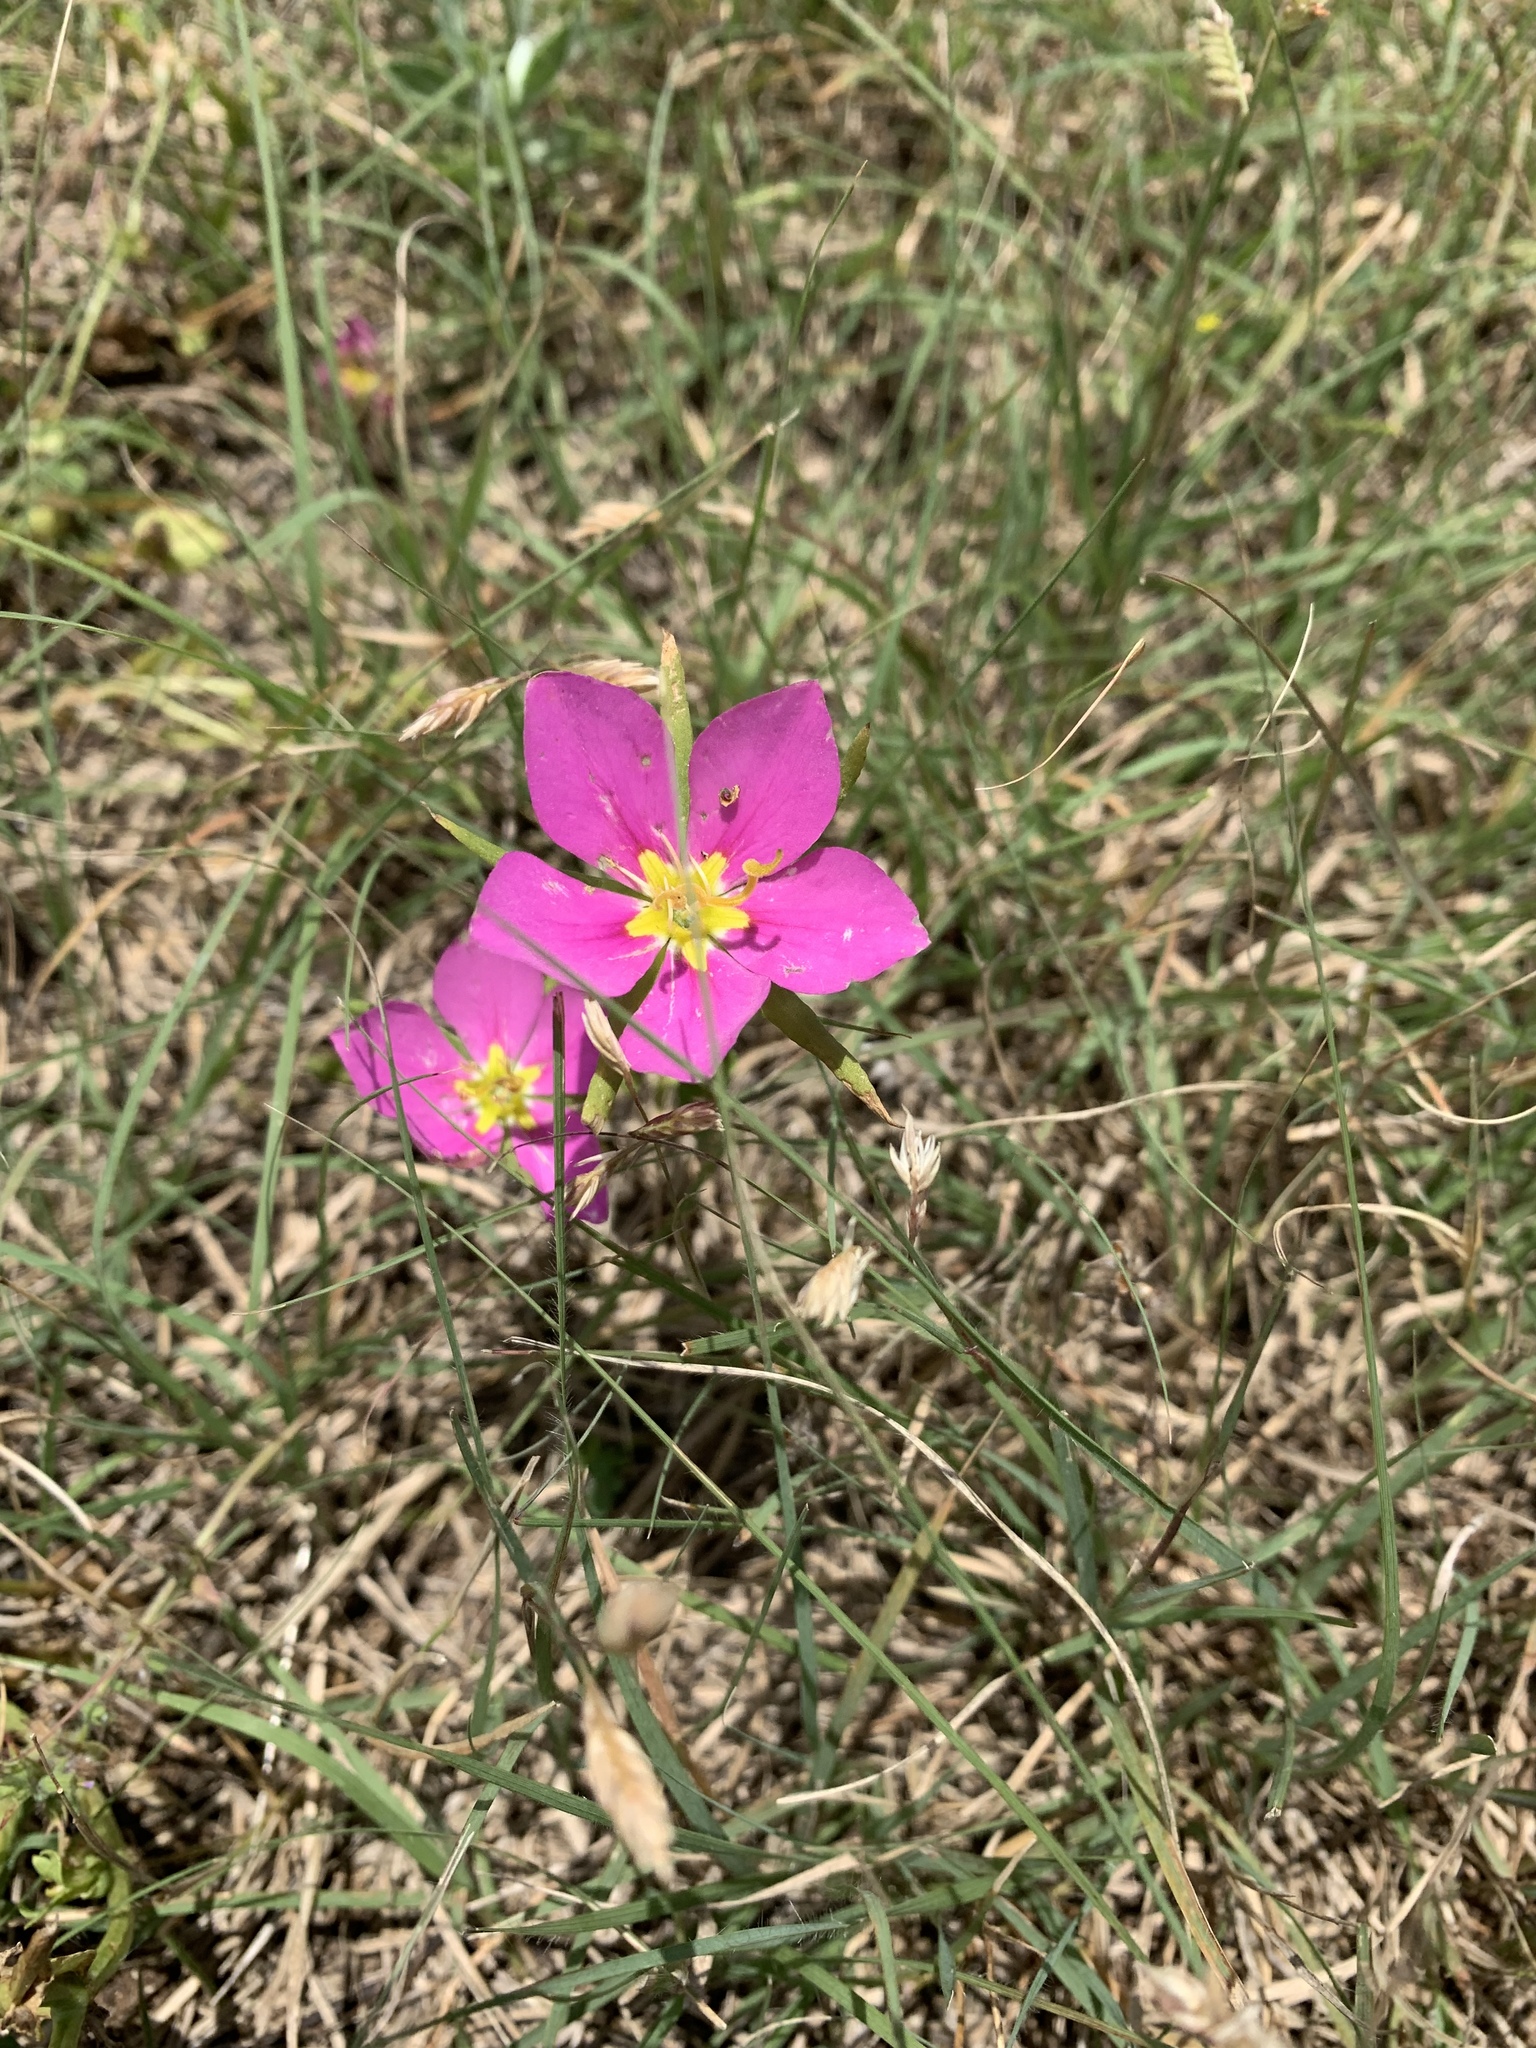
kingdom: Plantae
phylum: Tracheophyta
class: Magnoliopsida
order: Gentianales
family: Gentianaceae
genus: Sabatia
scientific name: Sabatia campestris
